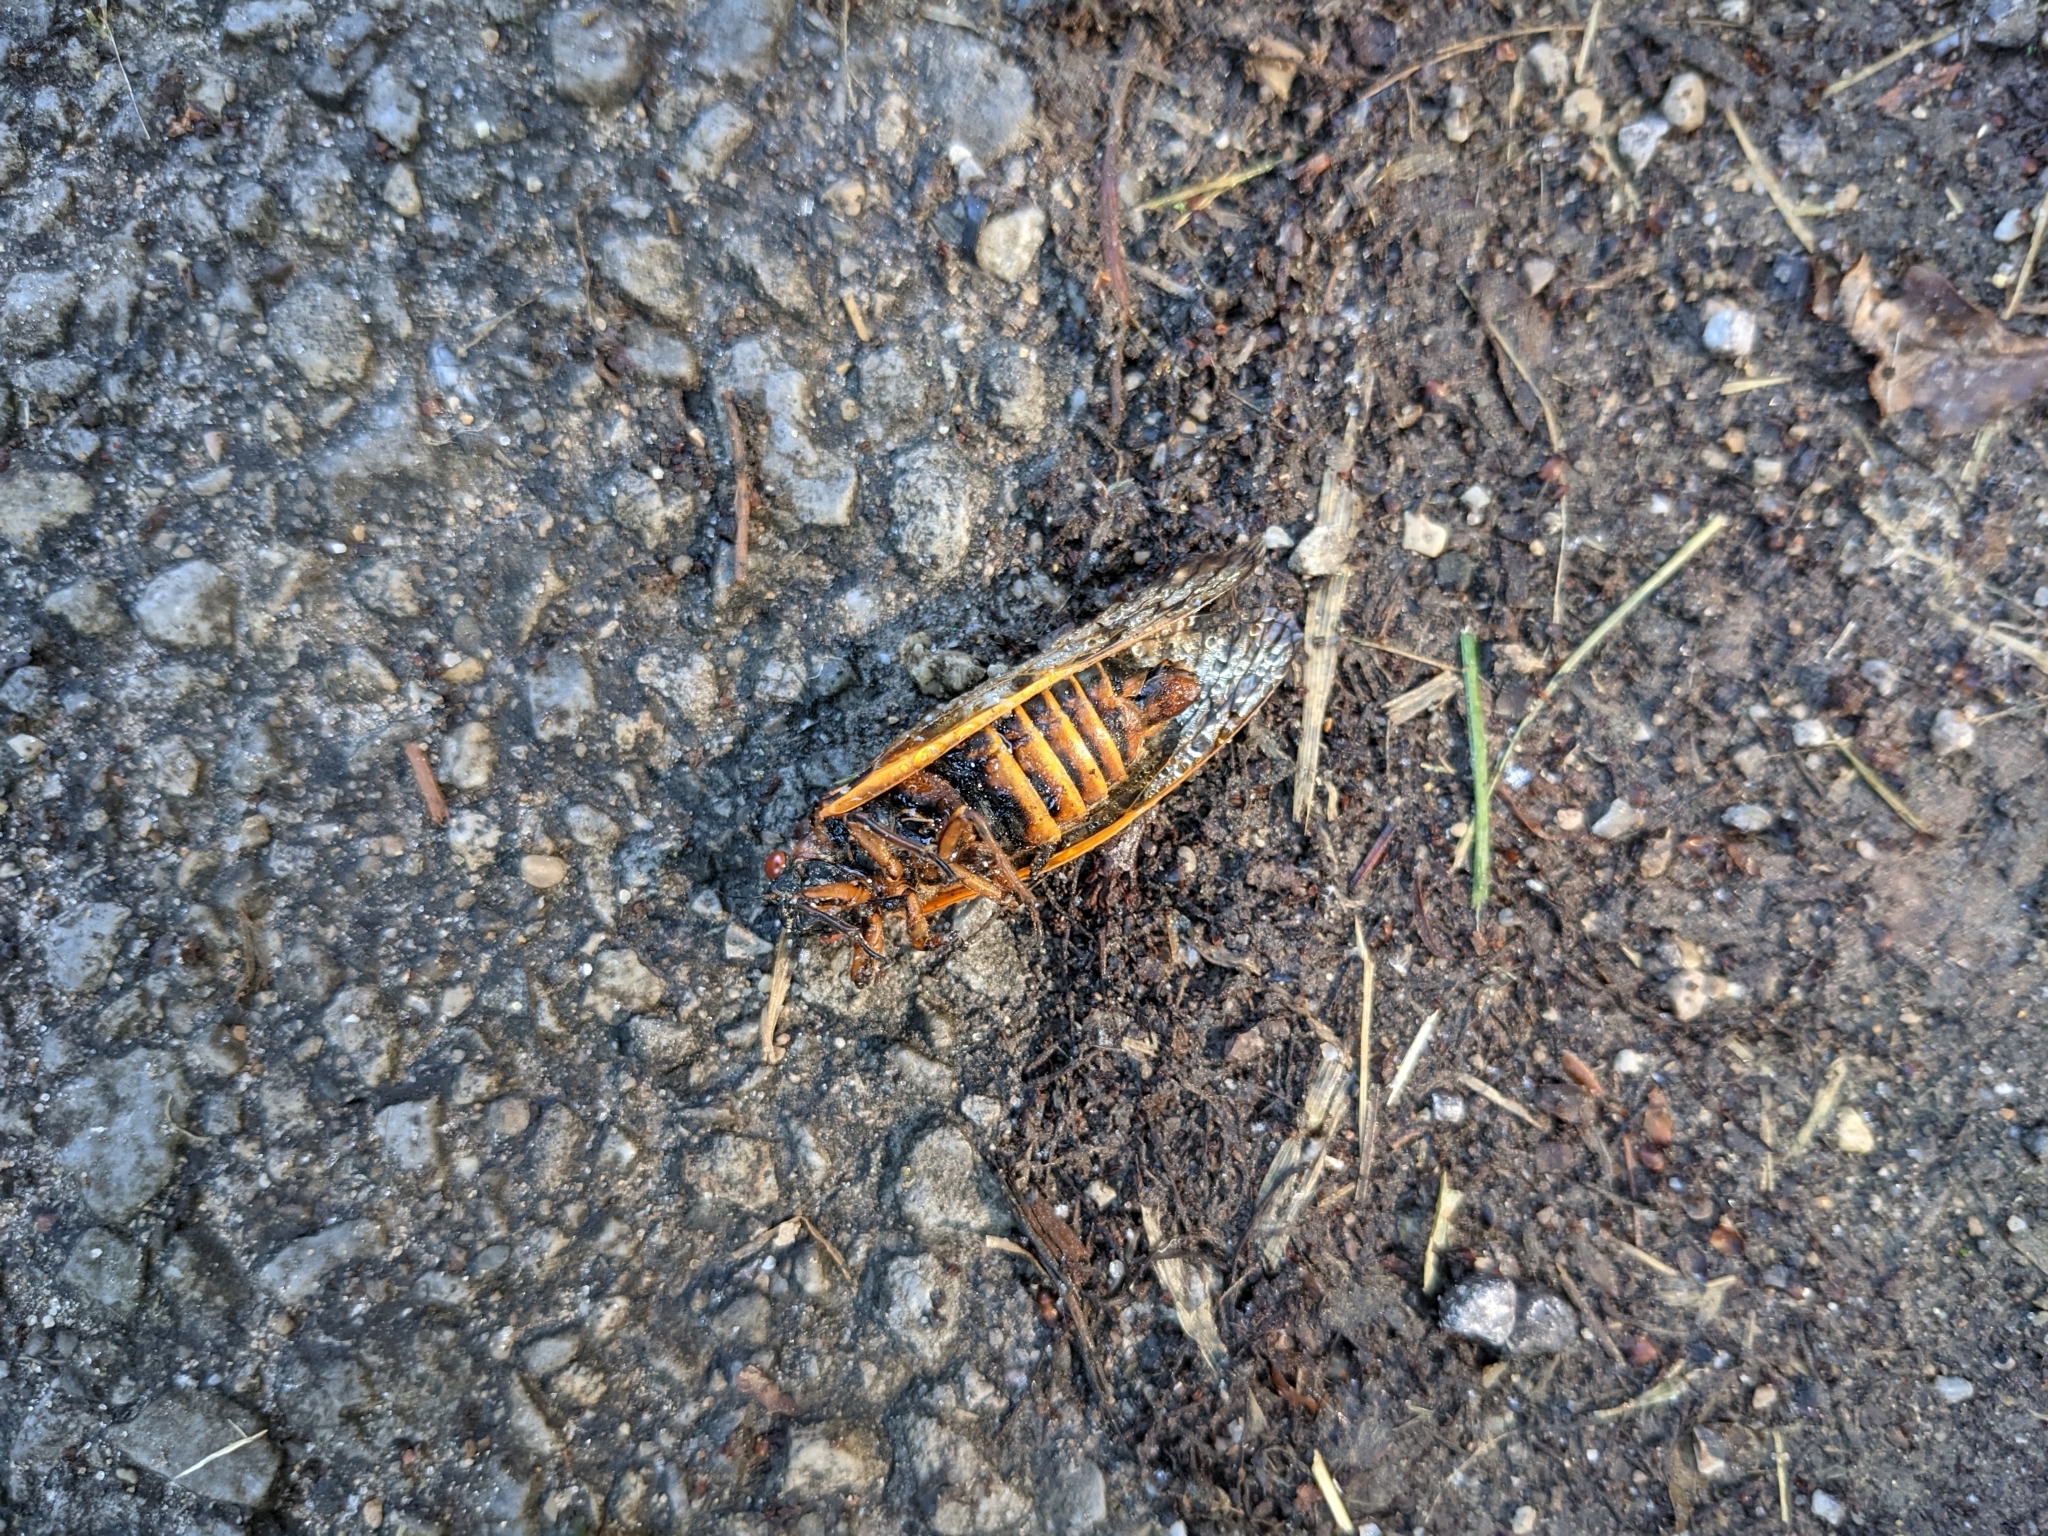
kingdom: Animalia
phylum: Arthropoda
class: Insecta
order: Hemiptera
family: Cicadidae
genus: Magicicada
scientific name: Magicicada septendecim
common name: Periodical cicada
